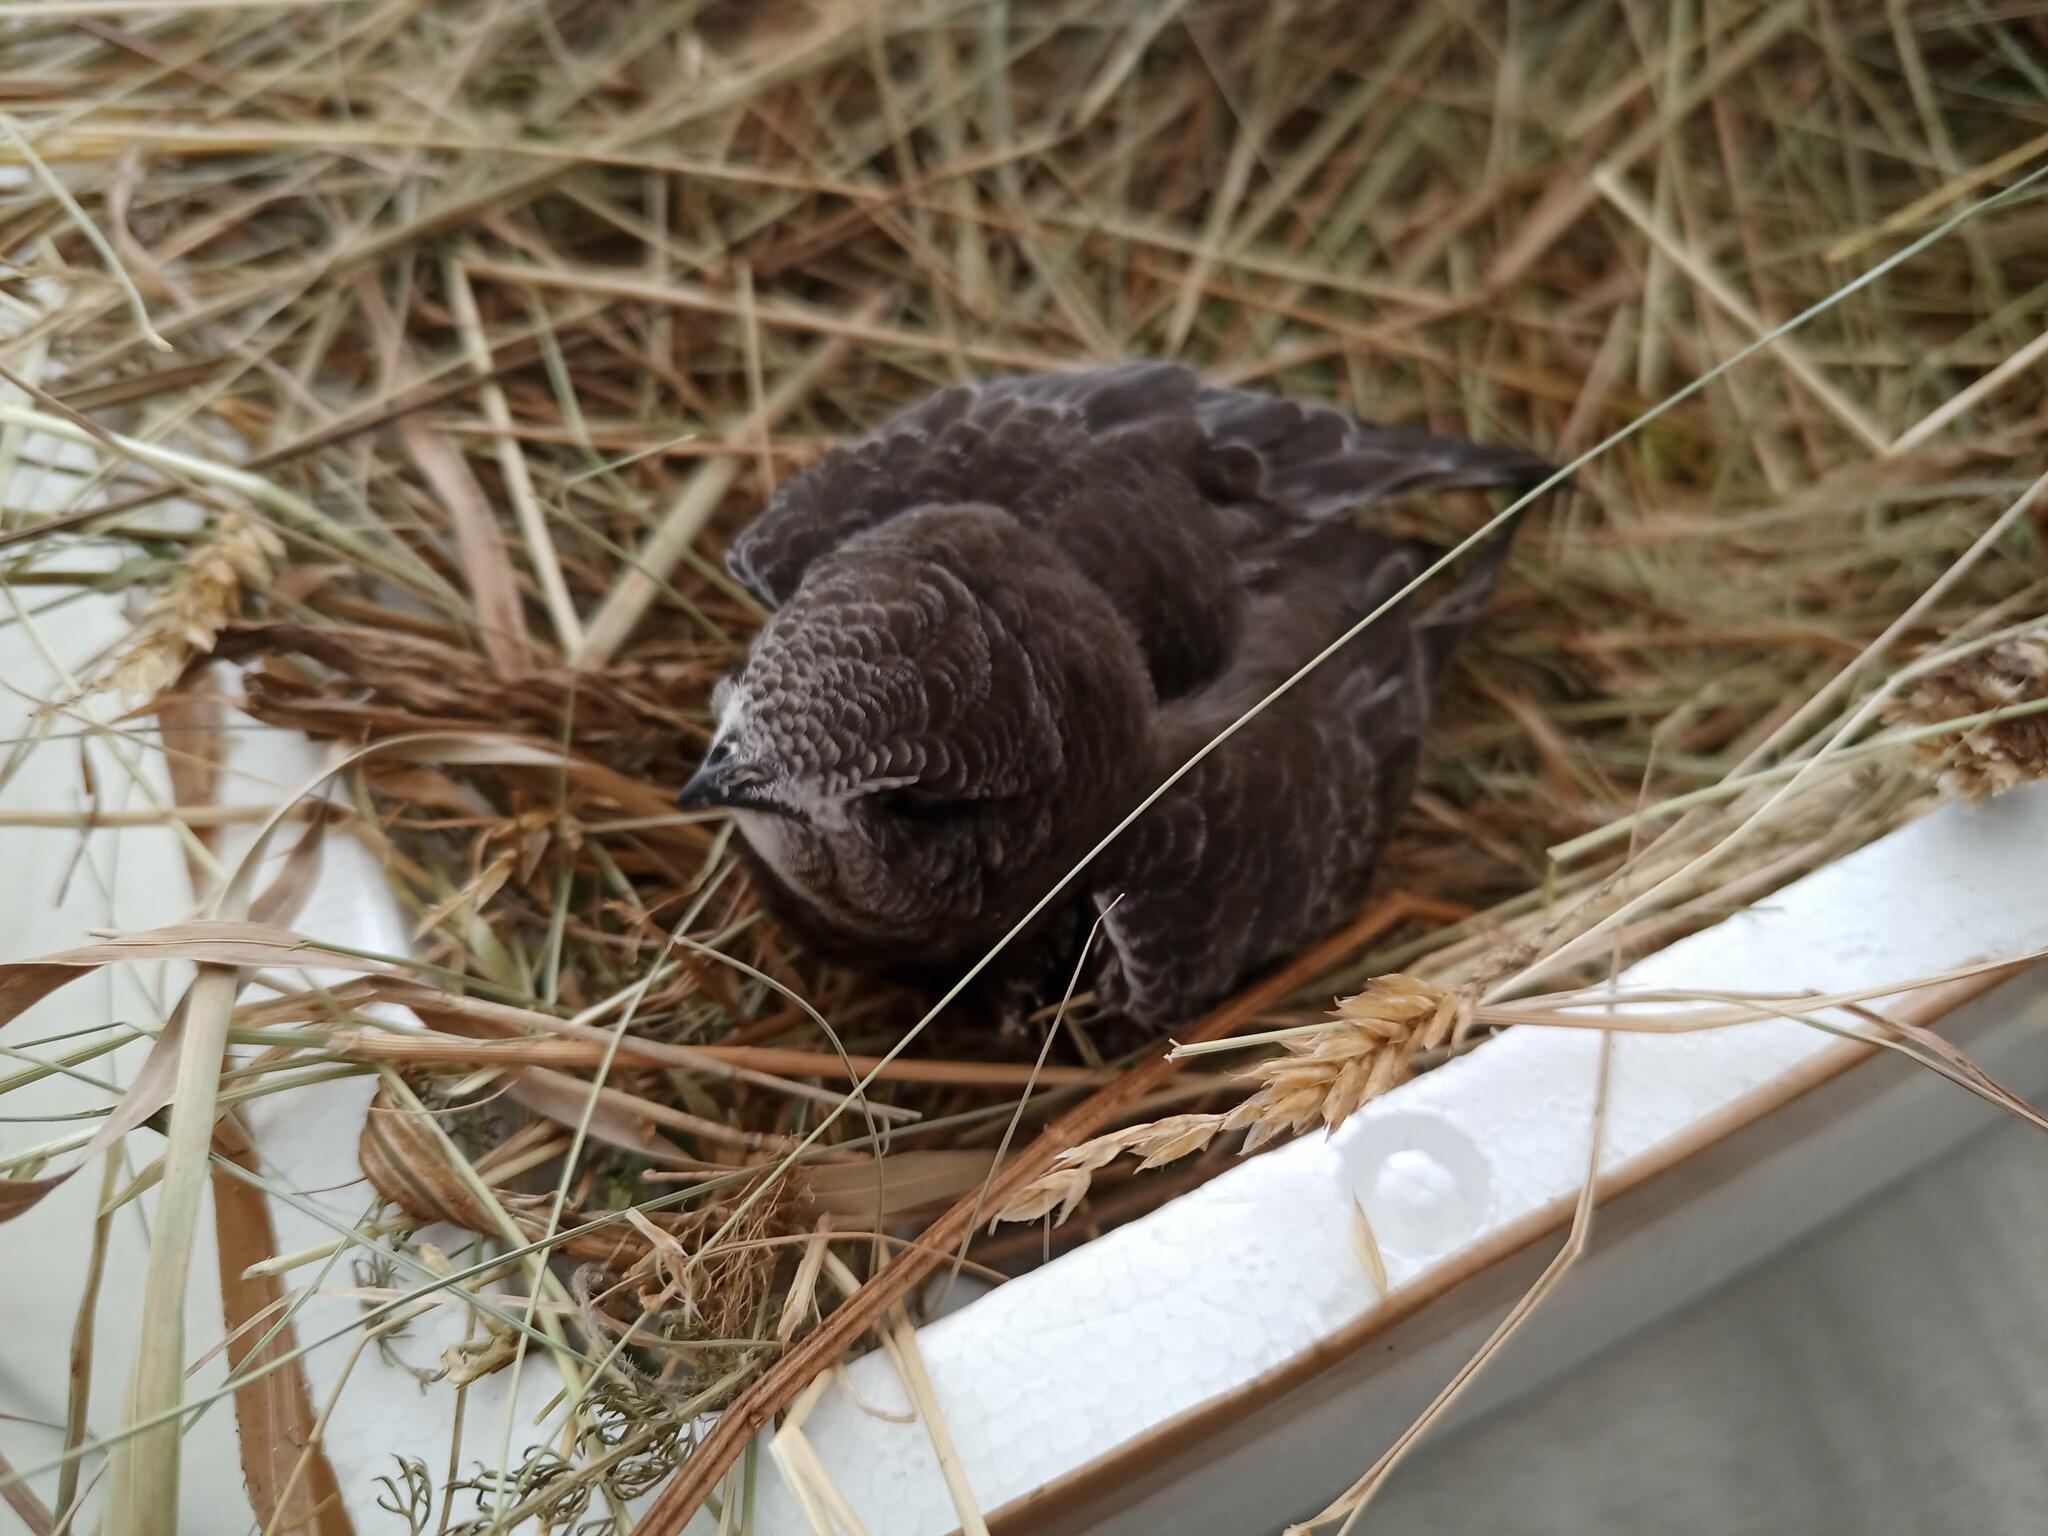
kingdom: Animalia
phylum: Chordata
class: Aves
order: Apodiformes
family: Apodidae
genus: Apus
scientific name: Apus apus
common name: Common swift
